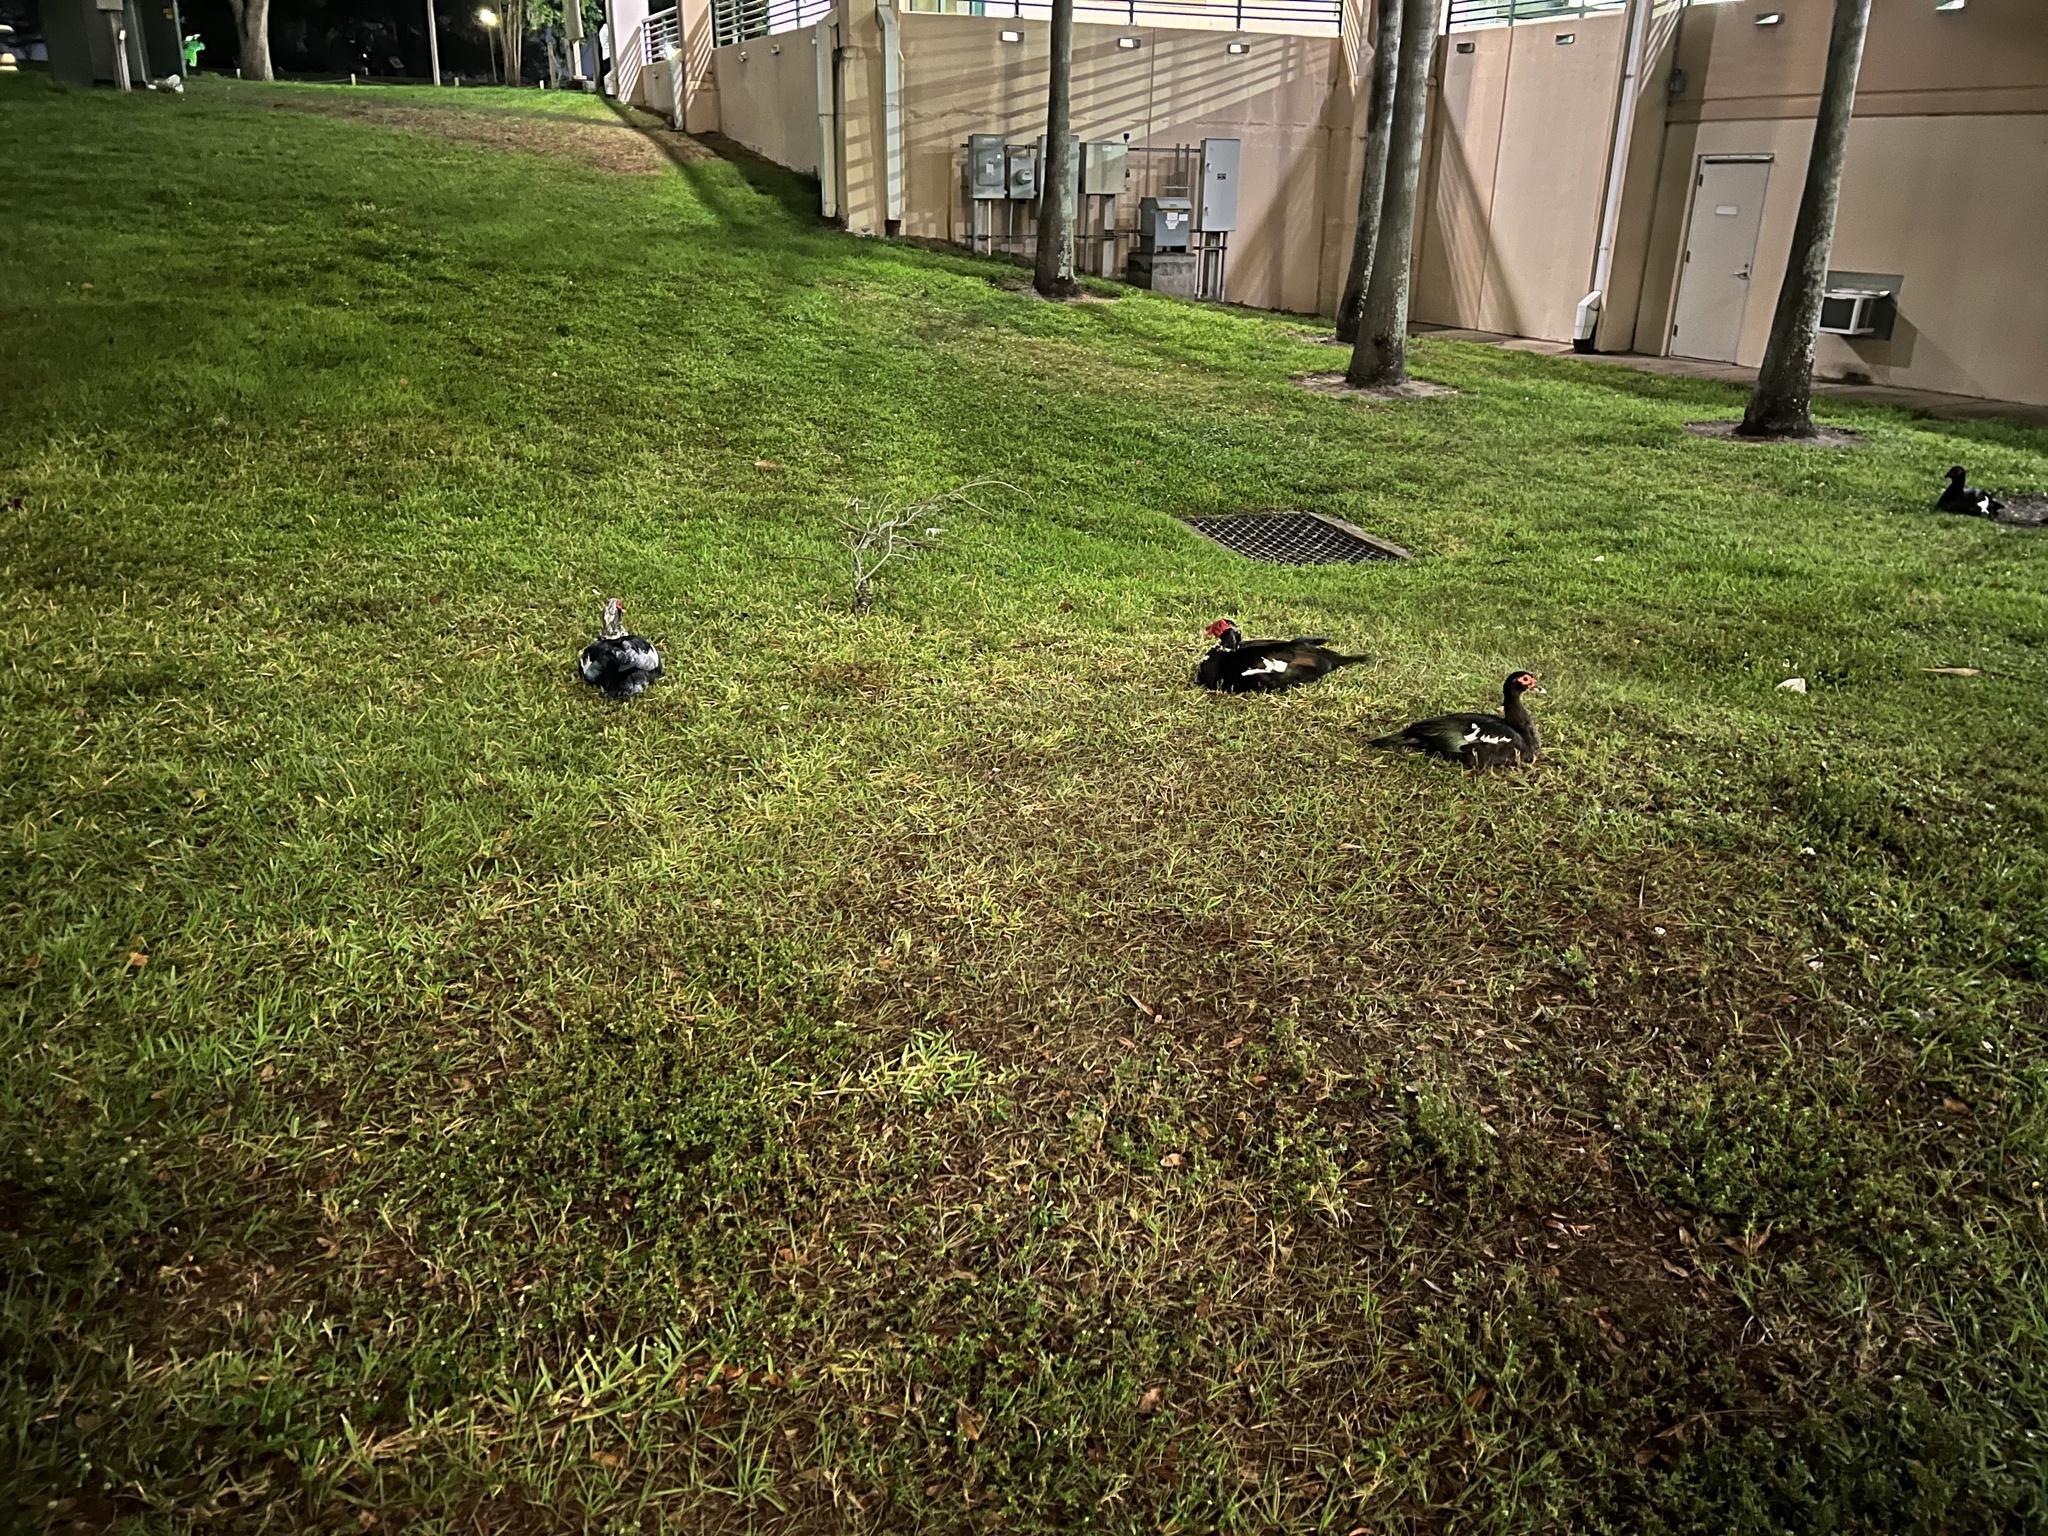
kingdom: Animalia
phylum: Chordata
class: Aves
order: Anseriformes
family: Anatidae
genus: Cairina
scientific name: Cairina moschata
